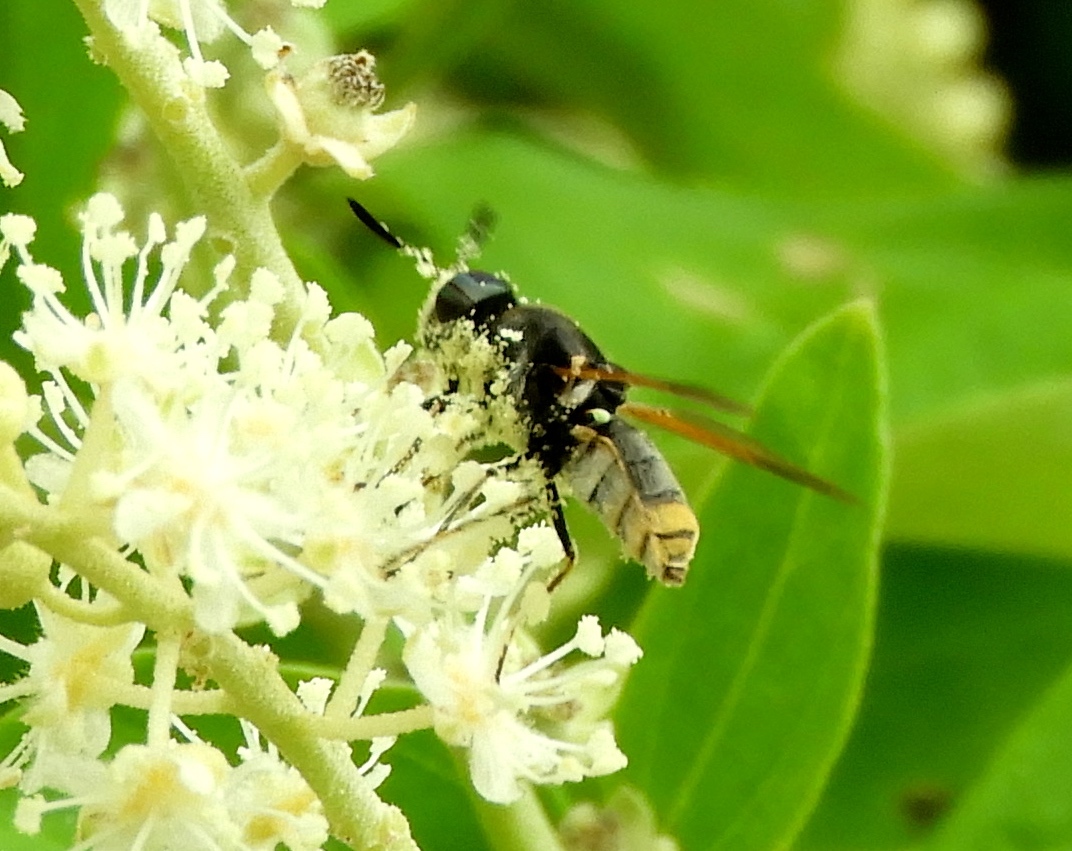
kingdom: Animalia
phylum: Arthropoda
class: Insecta
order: Diptera
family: Stratiomyidae
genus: Hoplitimyia
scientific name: Hoplitimyia
